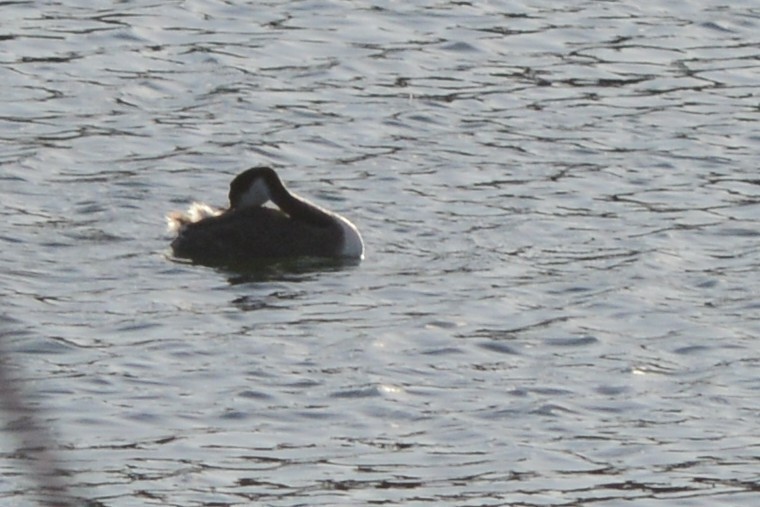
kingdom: Animalia
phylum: Chordata
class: Aves
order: Podicipediformes
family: Podicipedidae
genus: Aechmophorus
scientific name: Aechmophorus occidentalis
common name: Western grebe
